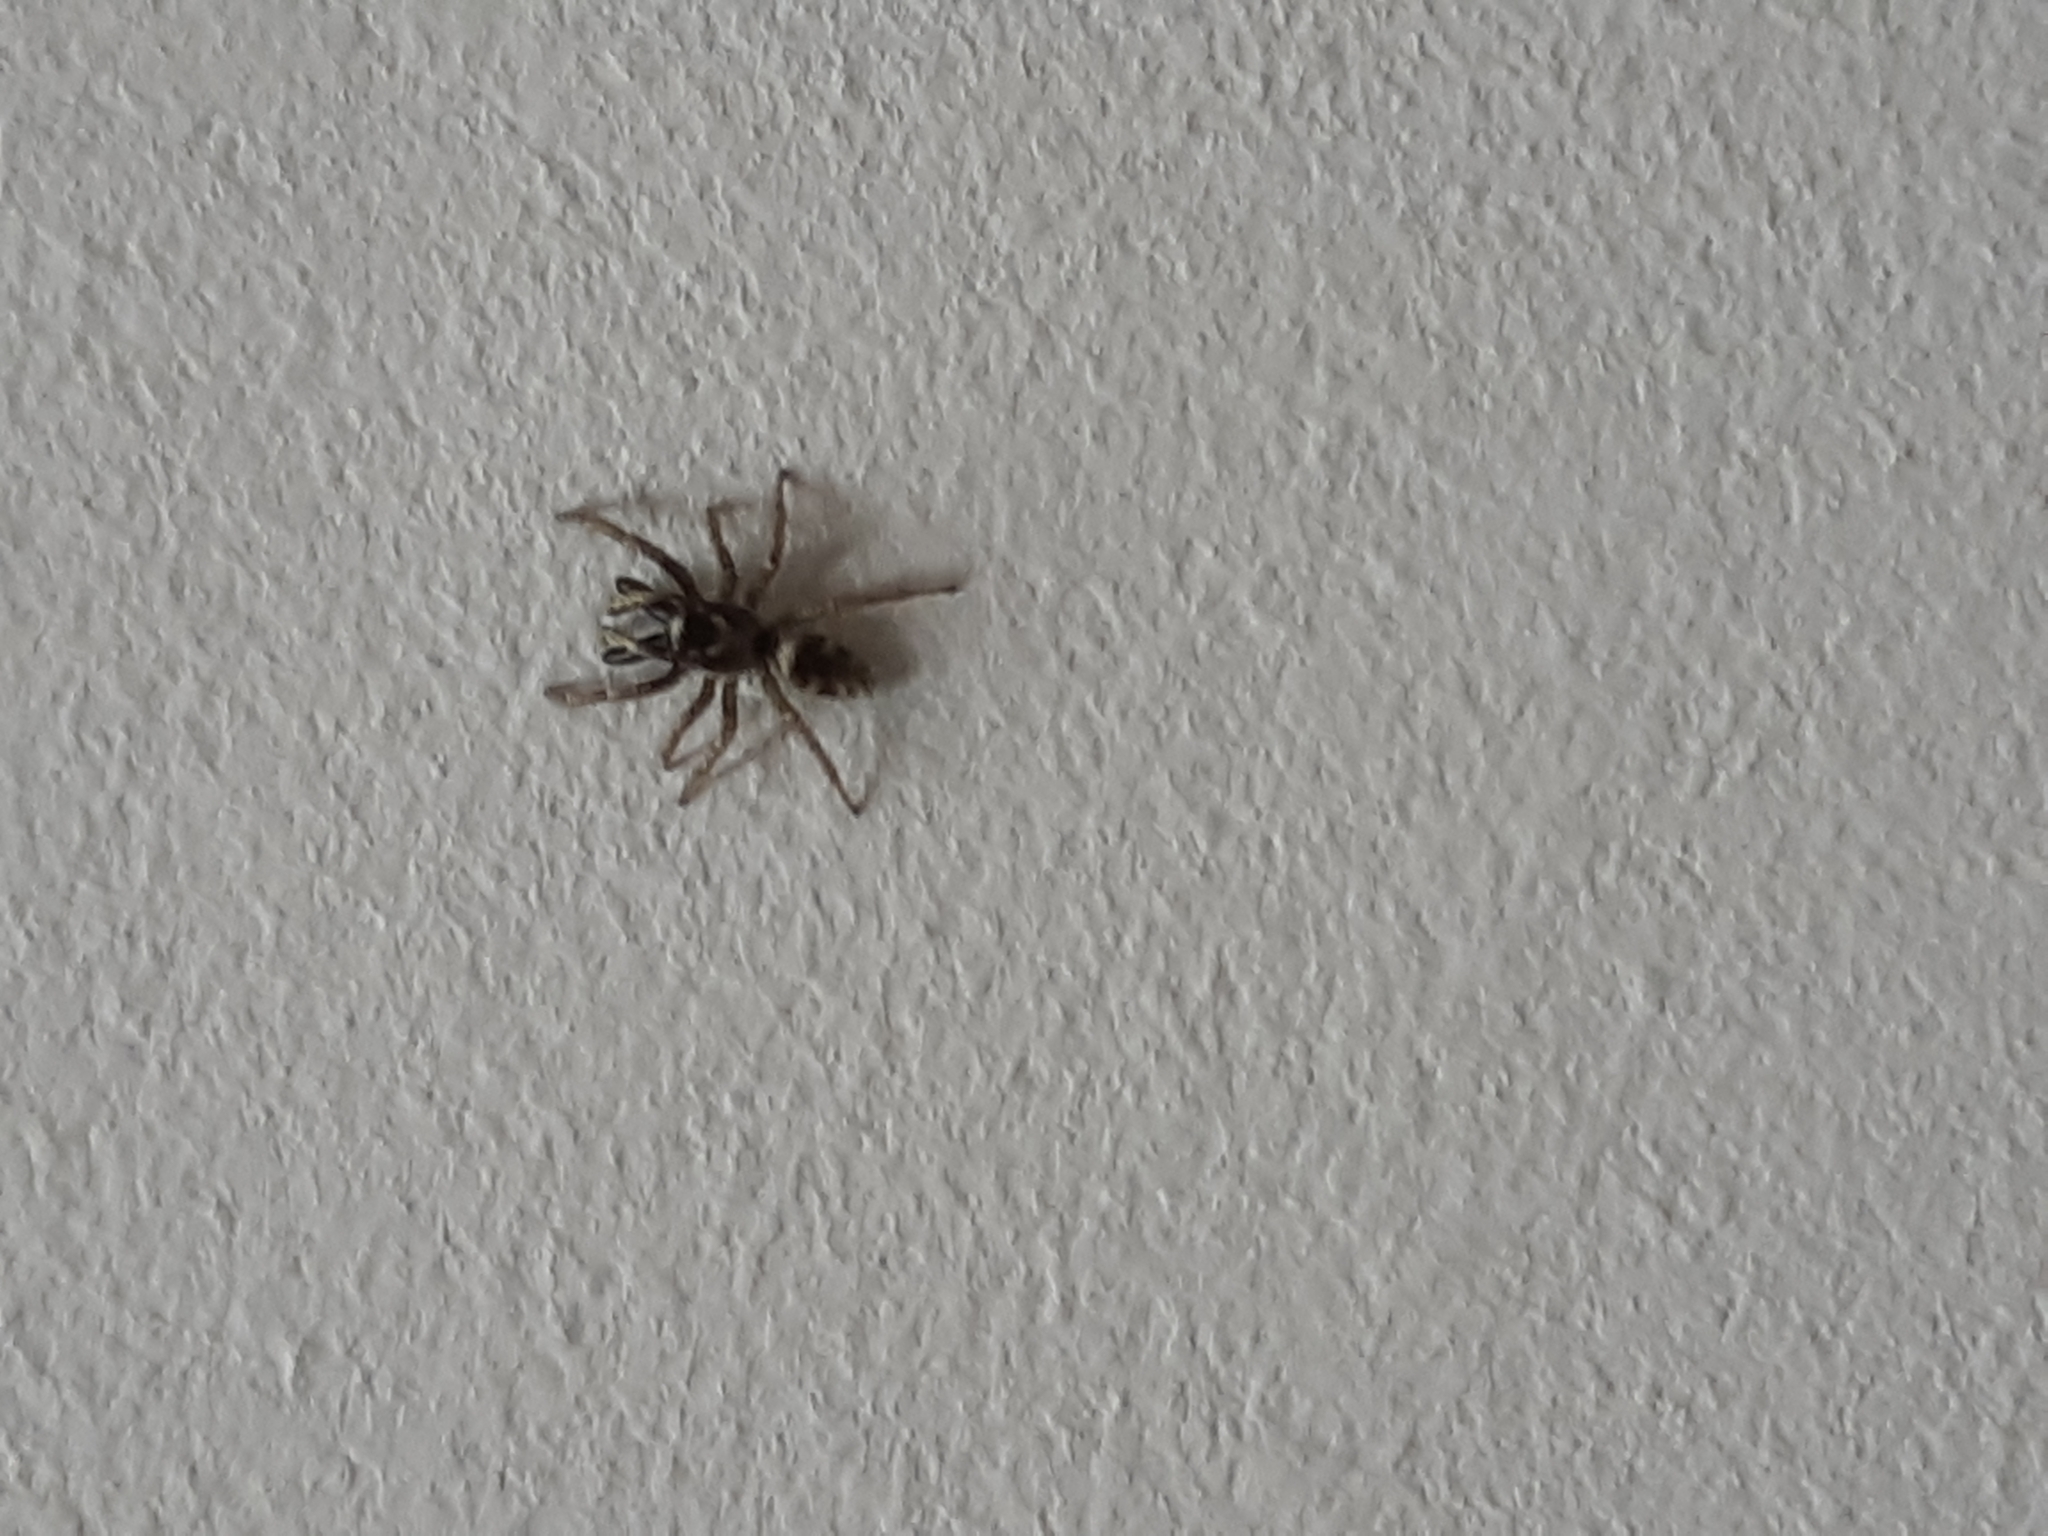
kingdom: Animalia
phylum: Arthropoda
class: Arachnida
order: Araneae
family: Salticidae
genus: Salticus
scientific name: Salticus scenicus
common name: Zebra jumper
